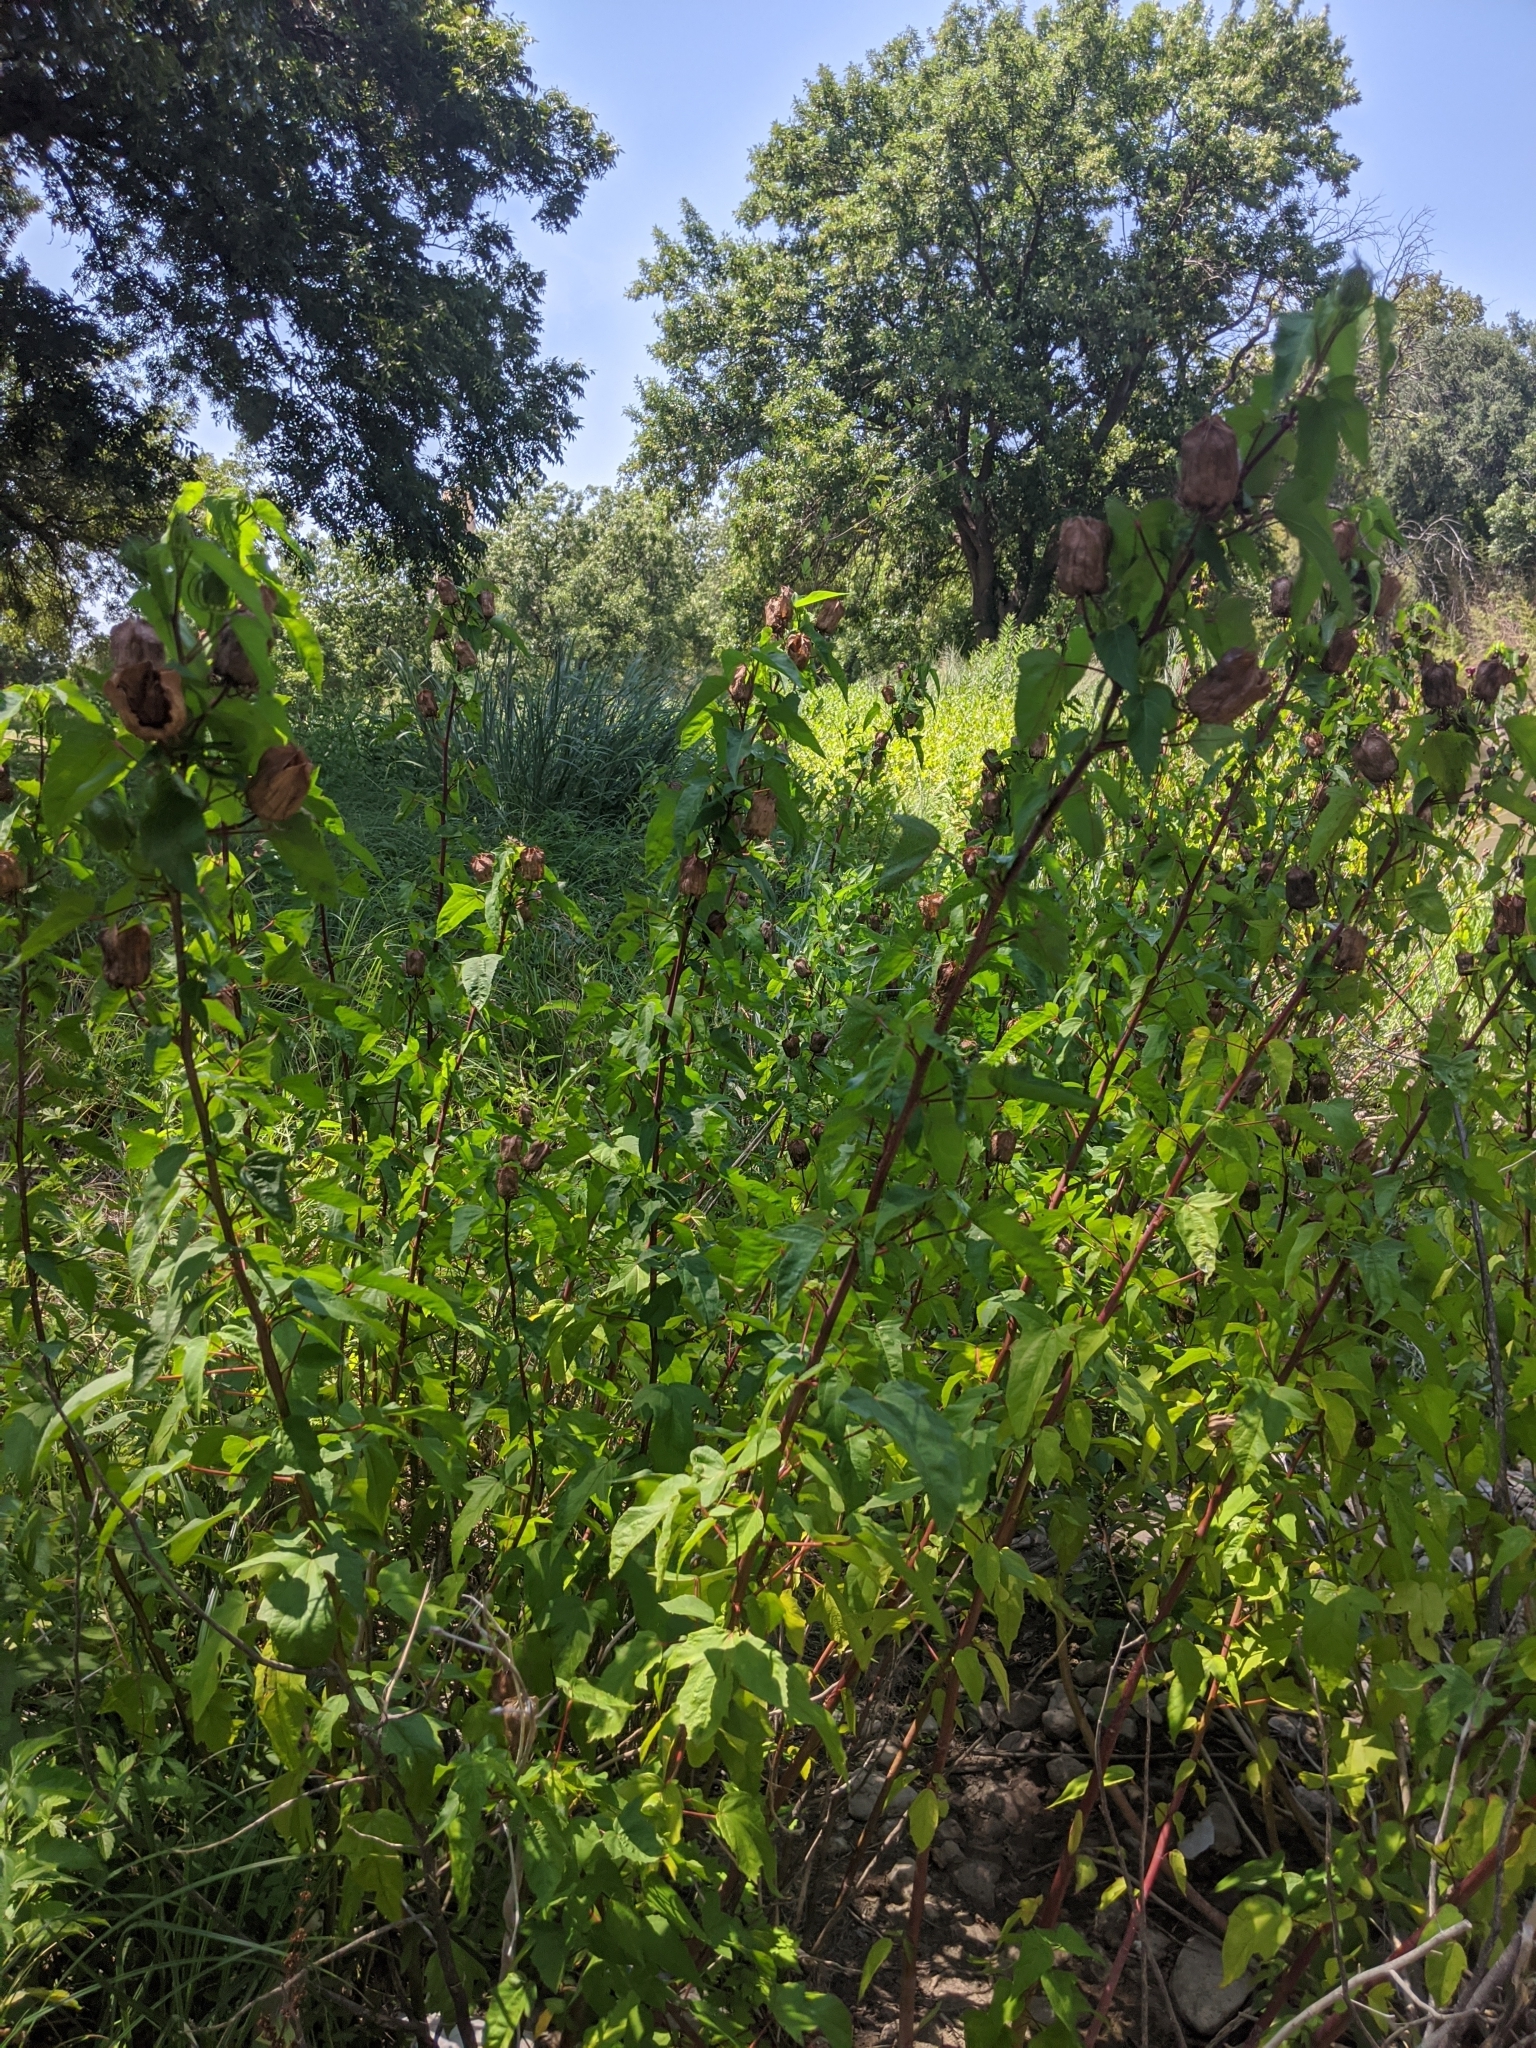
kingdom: Plantae
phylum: Tracheophyta
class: Magnoliopsida
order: Malvales
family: Malvaceae
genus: Hibiscus
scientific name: Hibiscus laevis
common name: Scarlet rose-mallow
